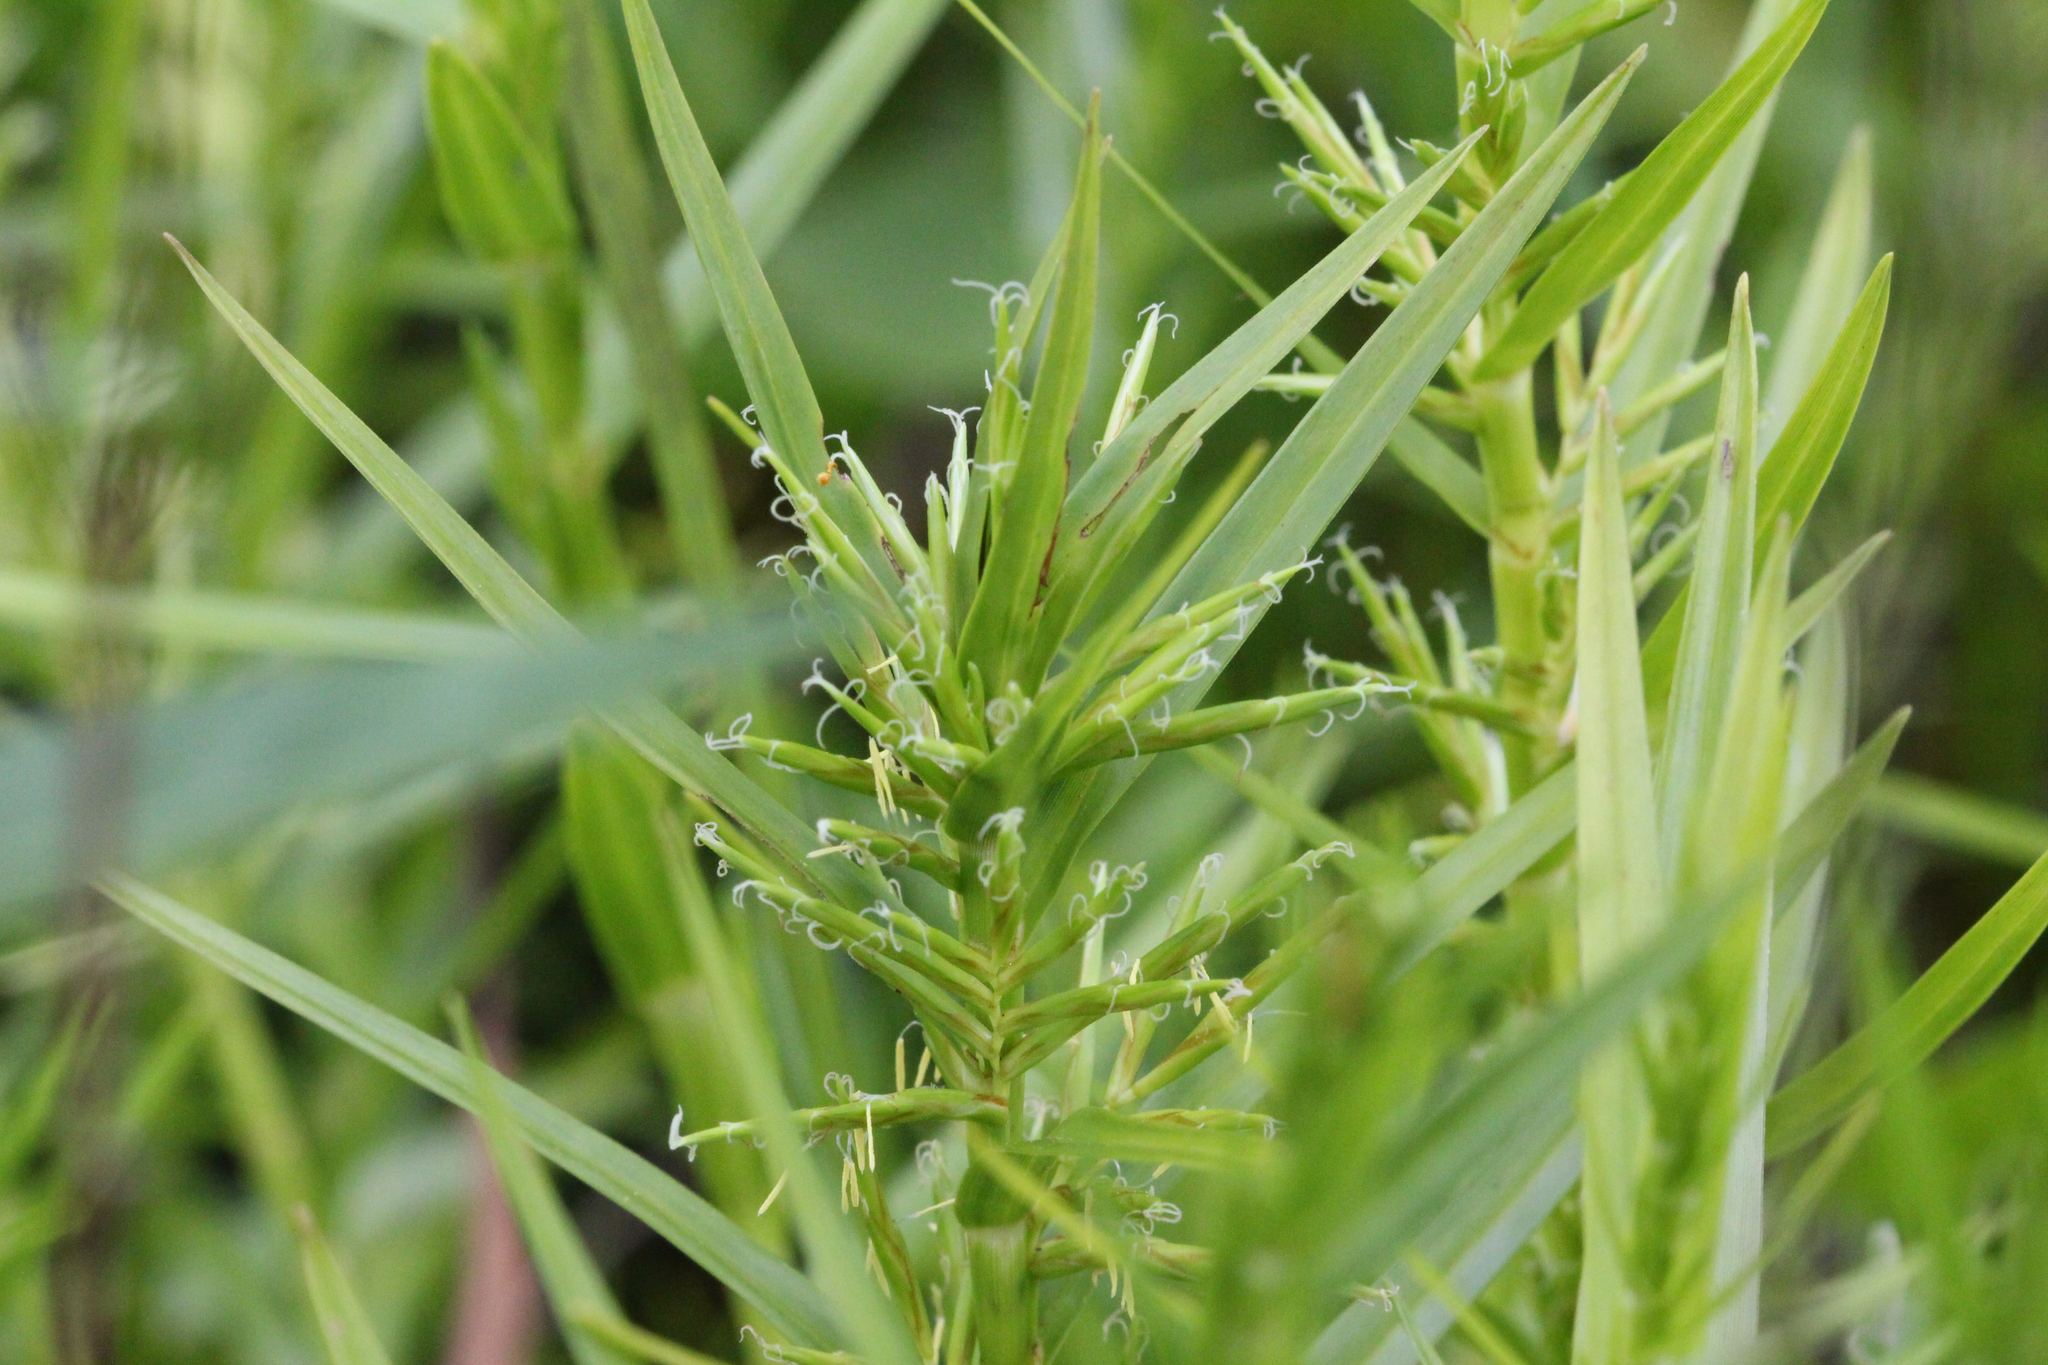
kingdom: Plantae
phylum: Tracheophyta
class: Liliopsida
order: Poales
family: Cyperaceae
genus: Dulichium
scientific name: Dulichium arundinaceum
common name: Three-way sedge
